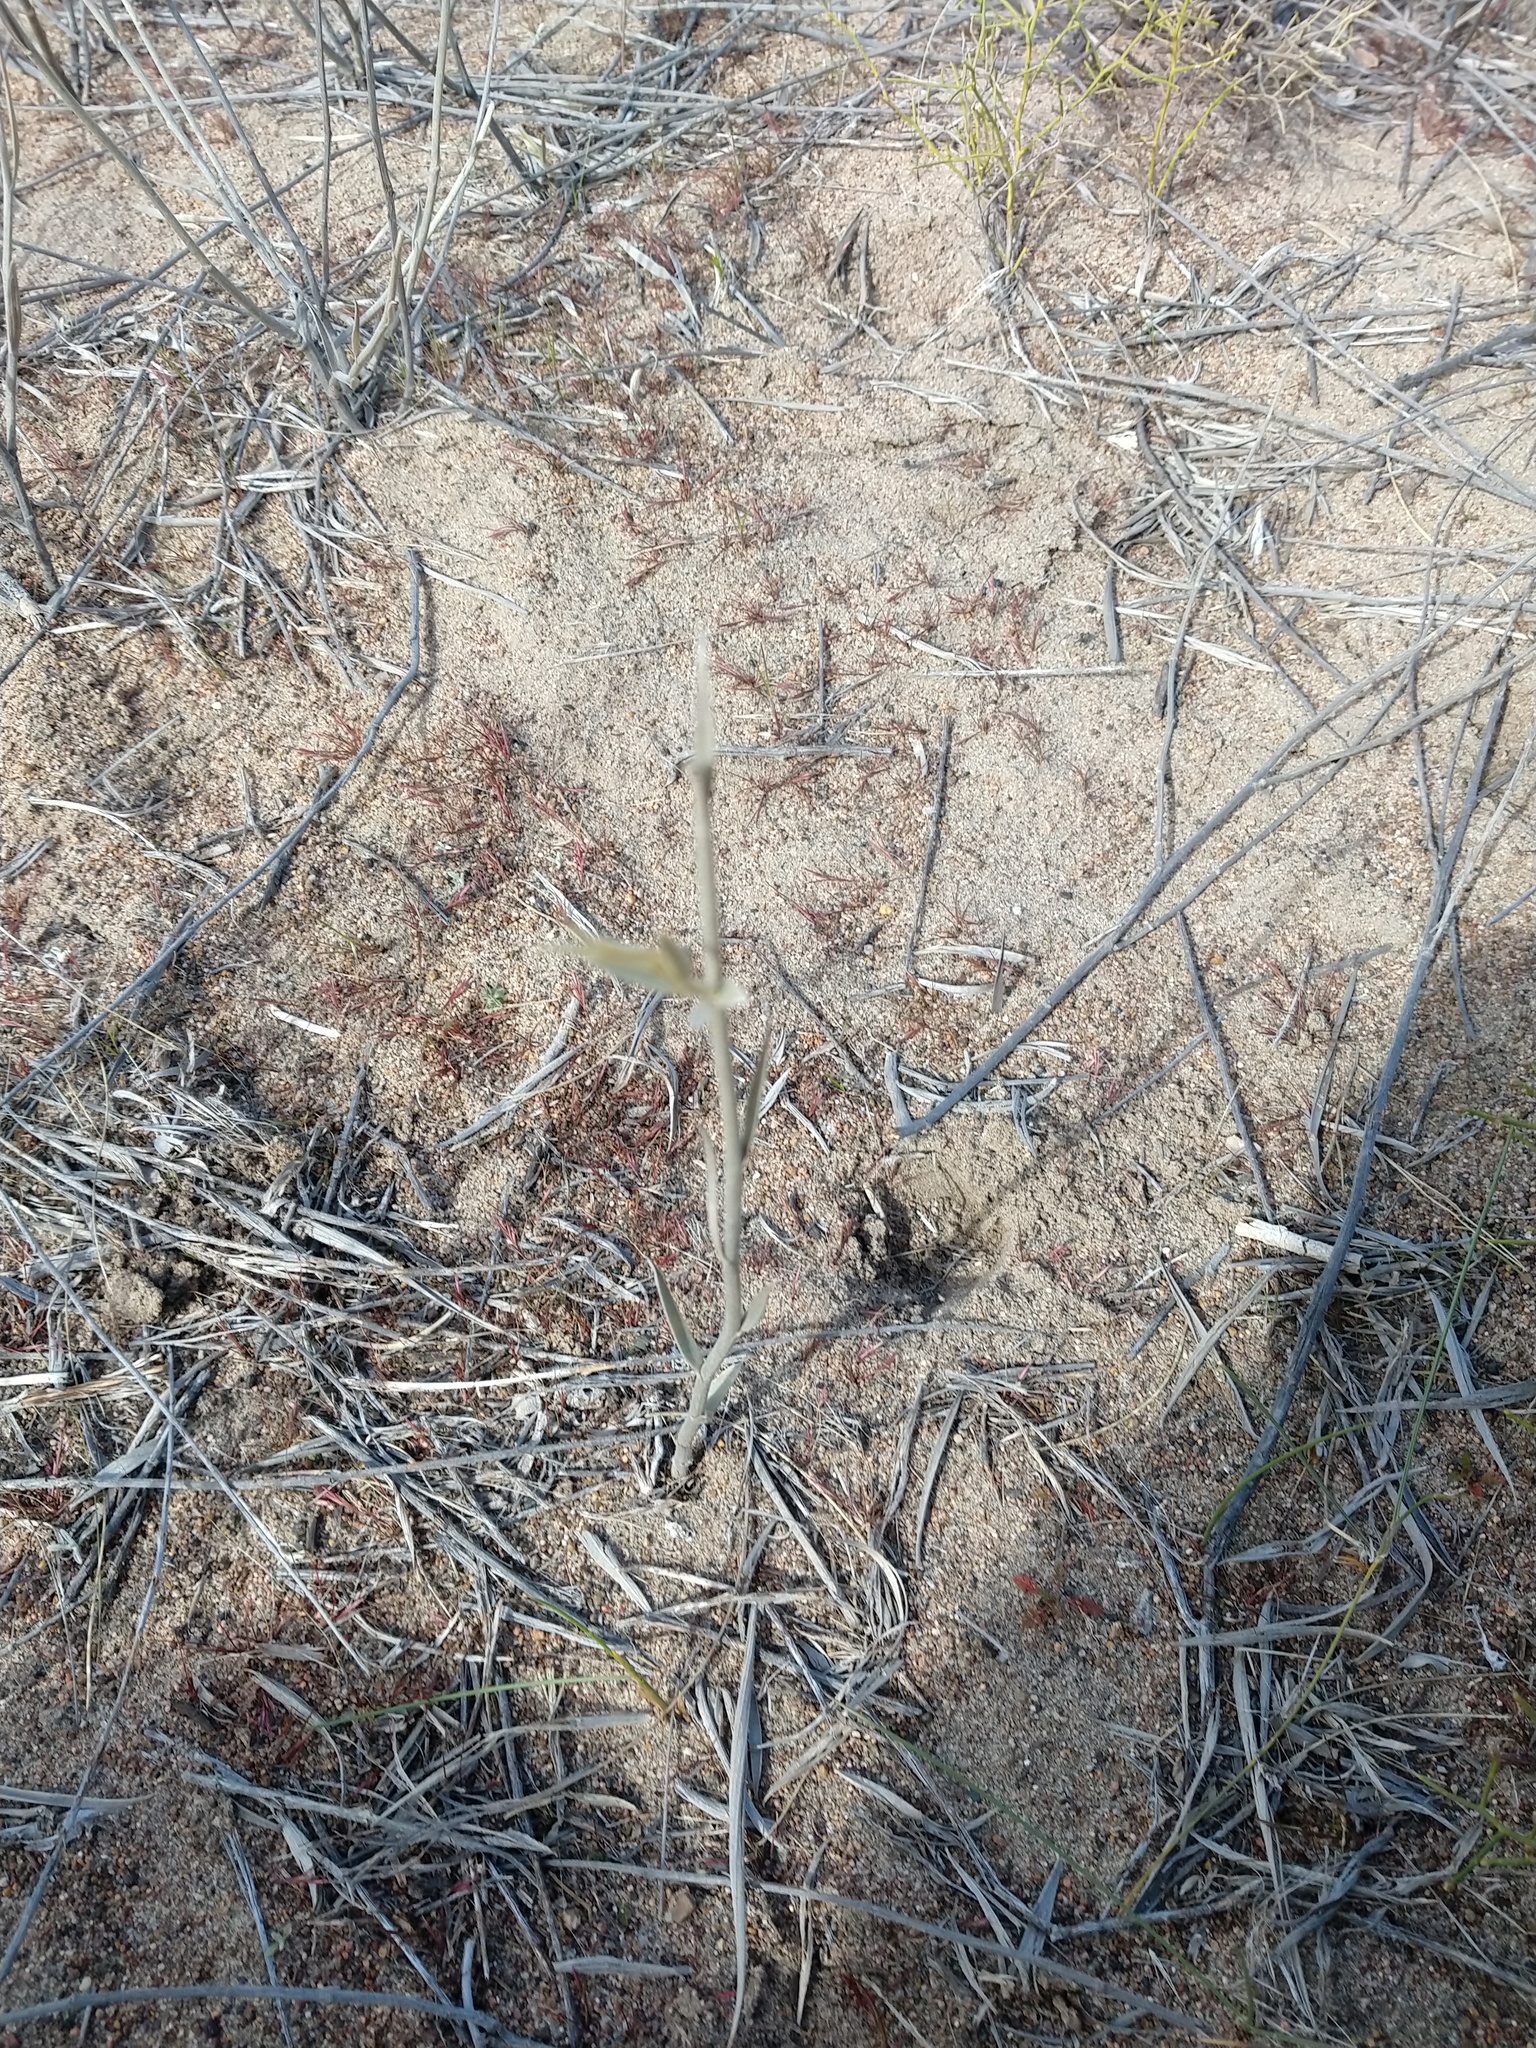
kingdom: Plantae
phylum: Tracheophyta
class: Magnoliopsida
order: Asterales
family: Asteraceae
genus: Hyalis
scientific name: Hyalis argentea
